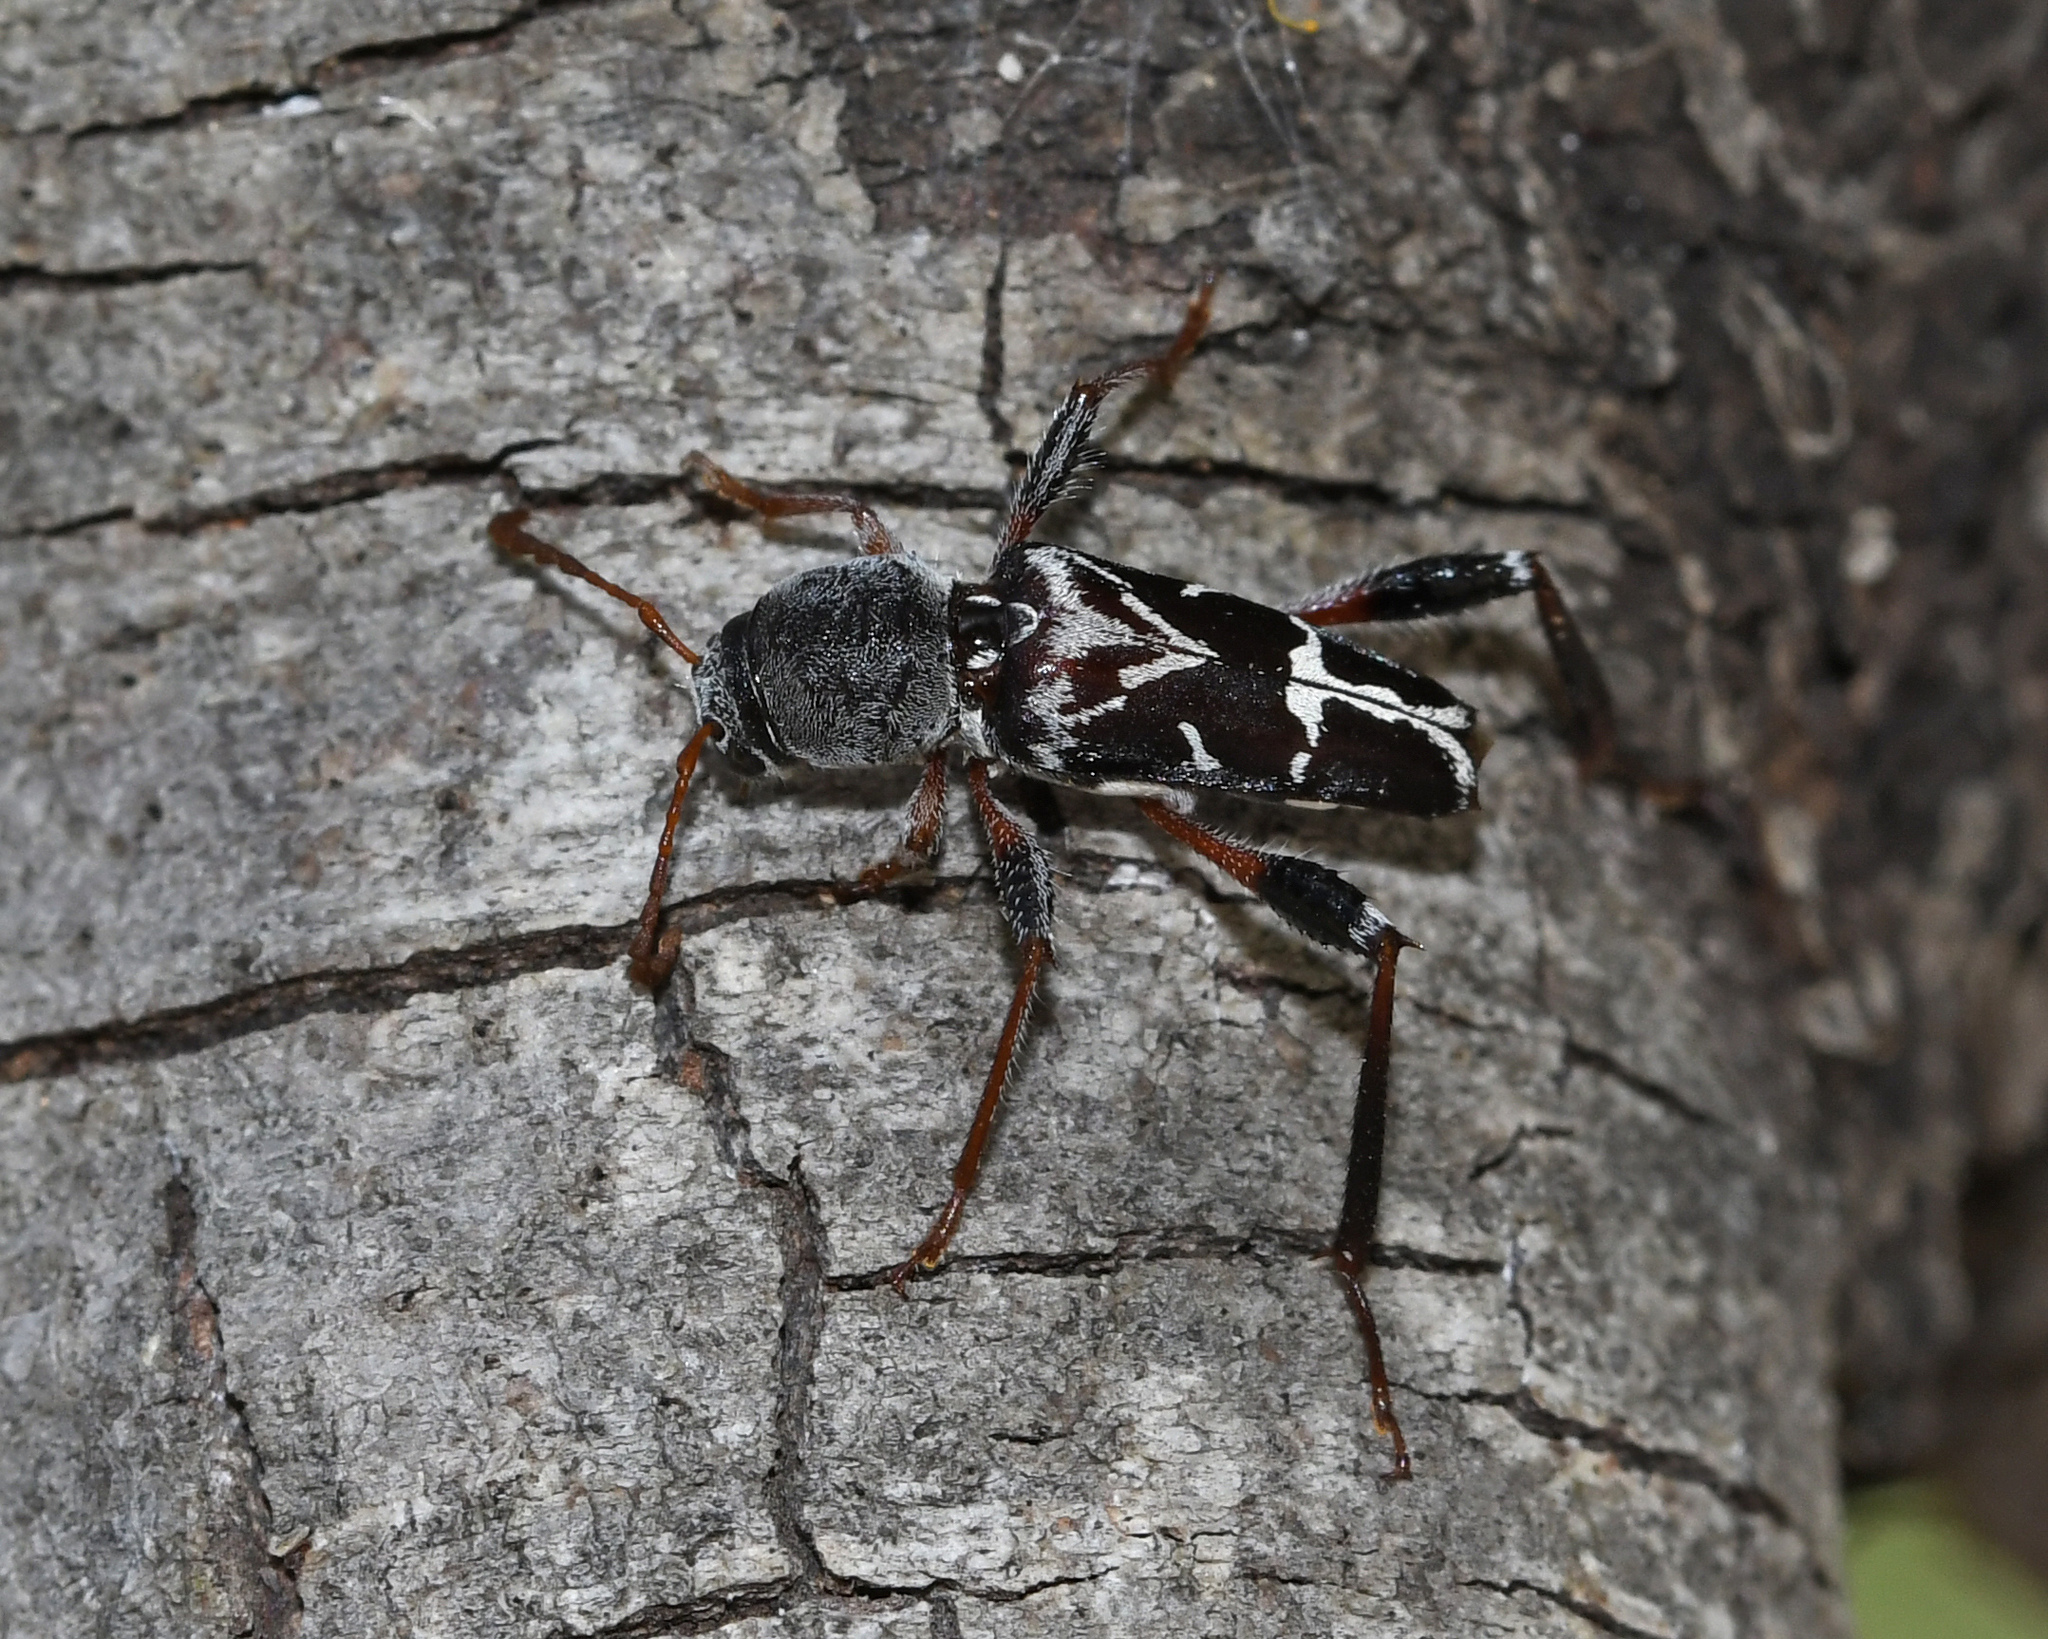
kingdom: Animalia
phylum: Arthropoda
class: Insecta
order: Coleoptera
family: Cerambycidae
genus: Neoclytus
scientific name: Neoclytus araneiformis
